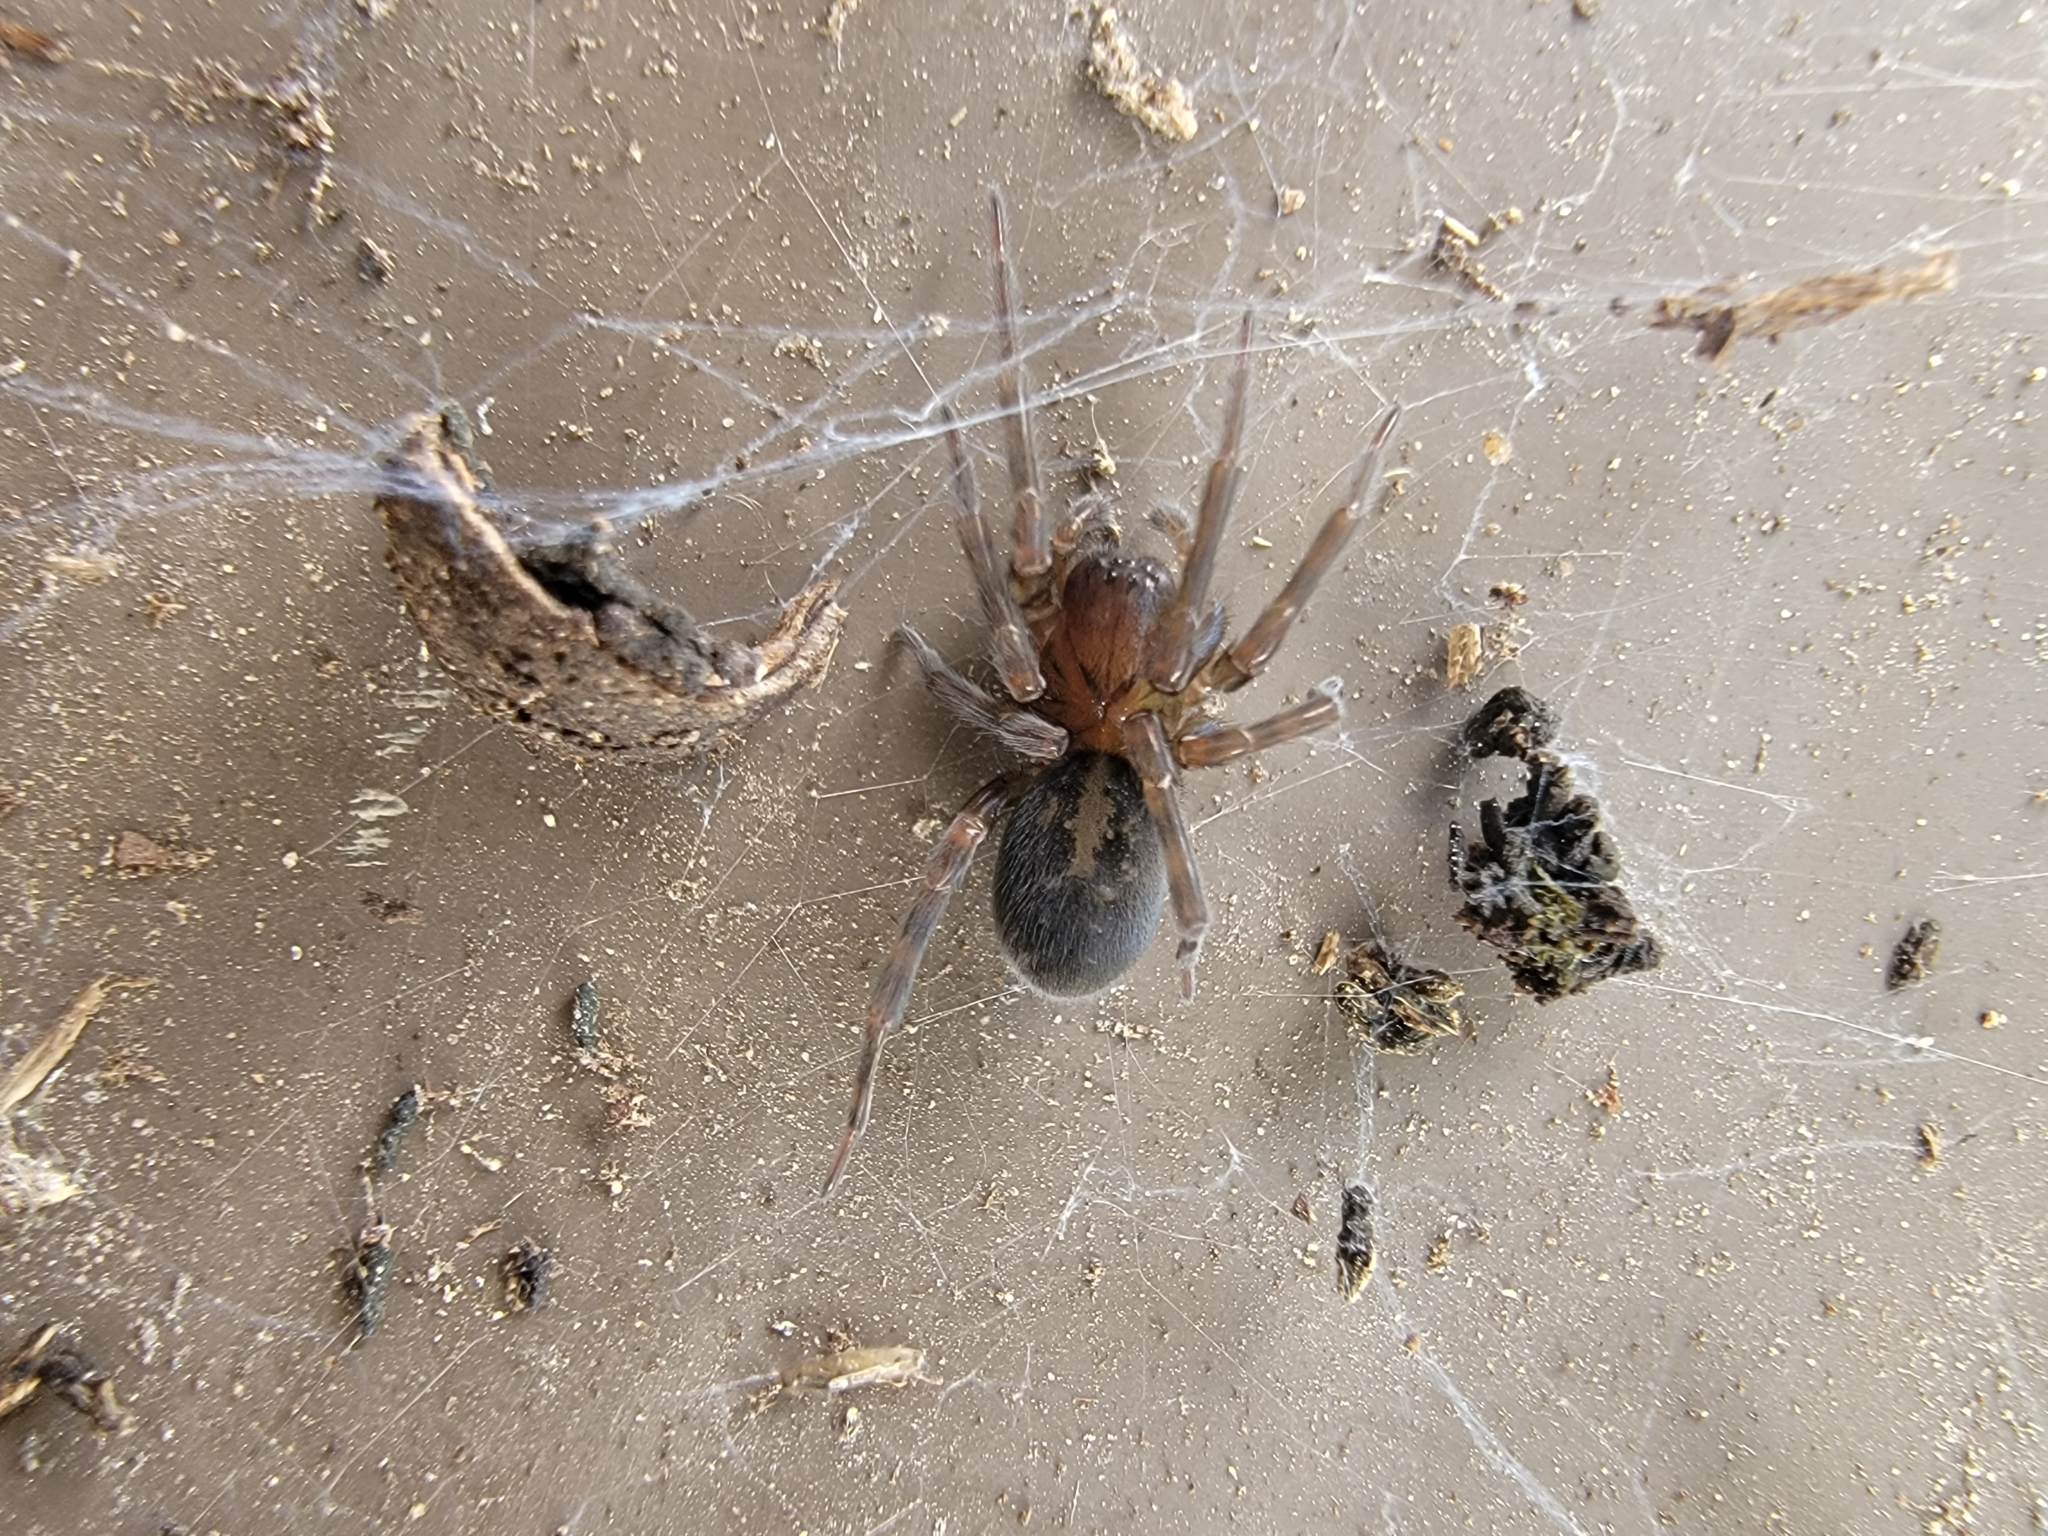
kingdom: Animalia
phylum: Arthropoda
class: Arachnida
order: Araneae
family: Amaurobiidae
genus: Amaurobius
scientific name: Amaurobius ferox
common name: Black laceweaver
